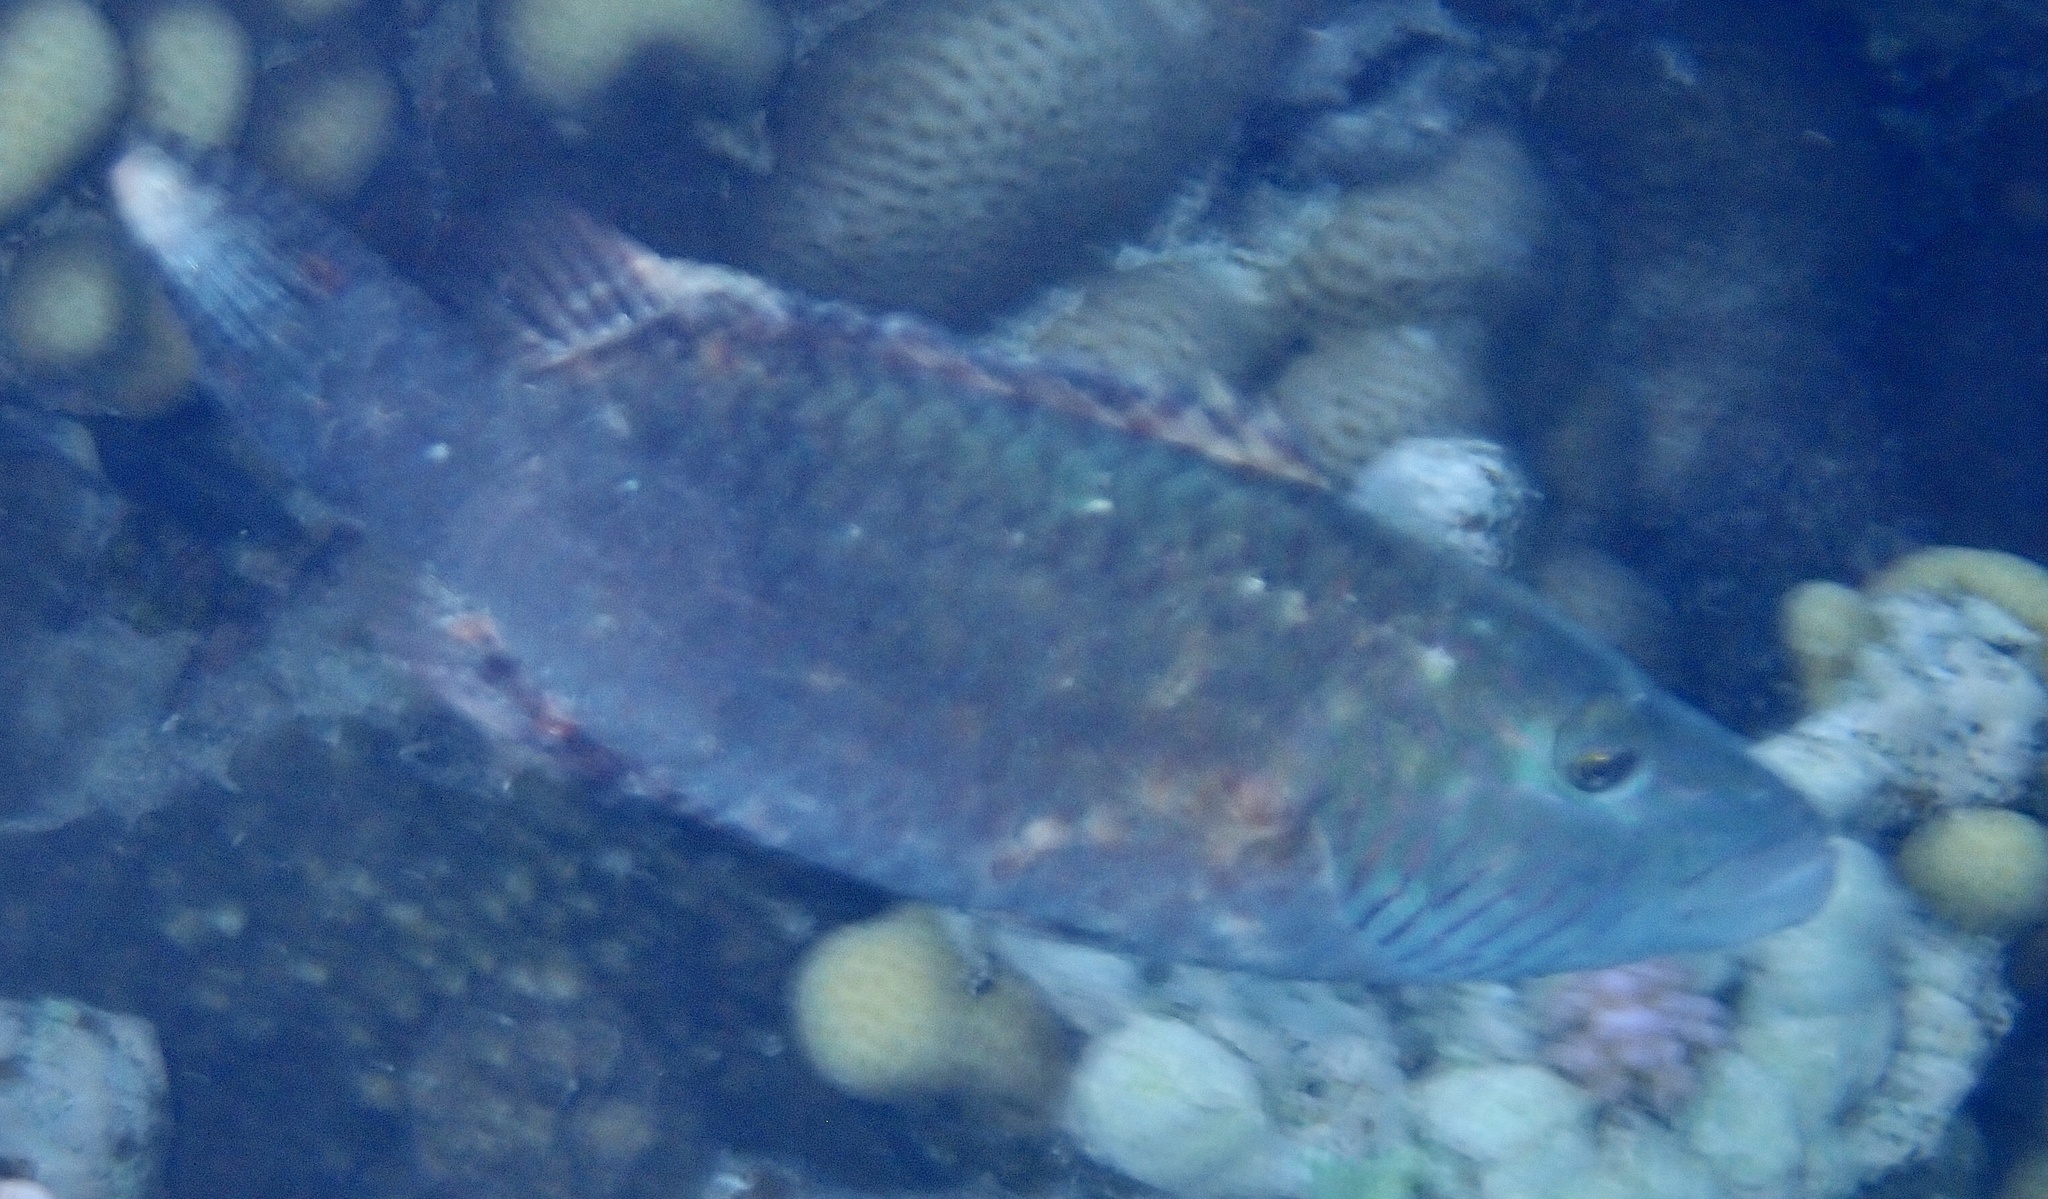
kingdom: Animalia
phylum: Chordata
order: Perciformes
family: Labridae
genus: Oxycheilinus
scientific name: Oxycheilinus digramma
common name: Bandcheek wrasse
